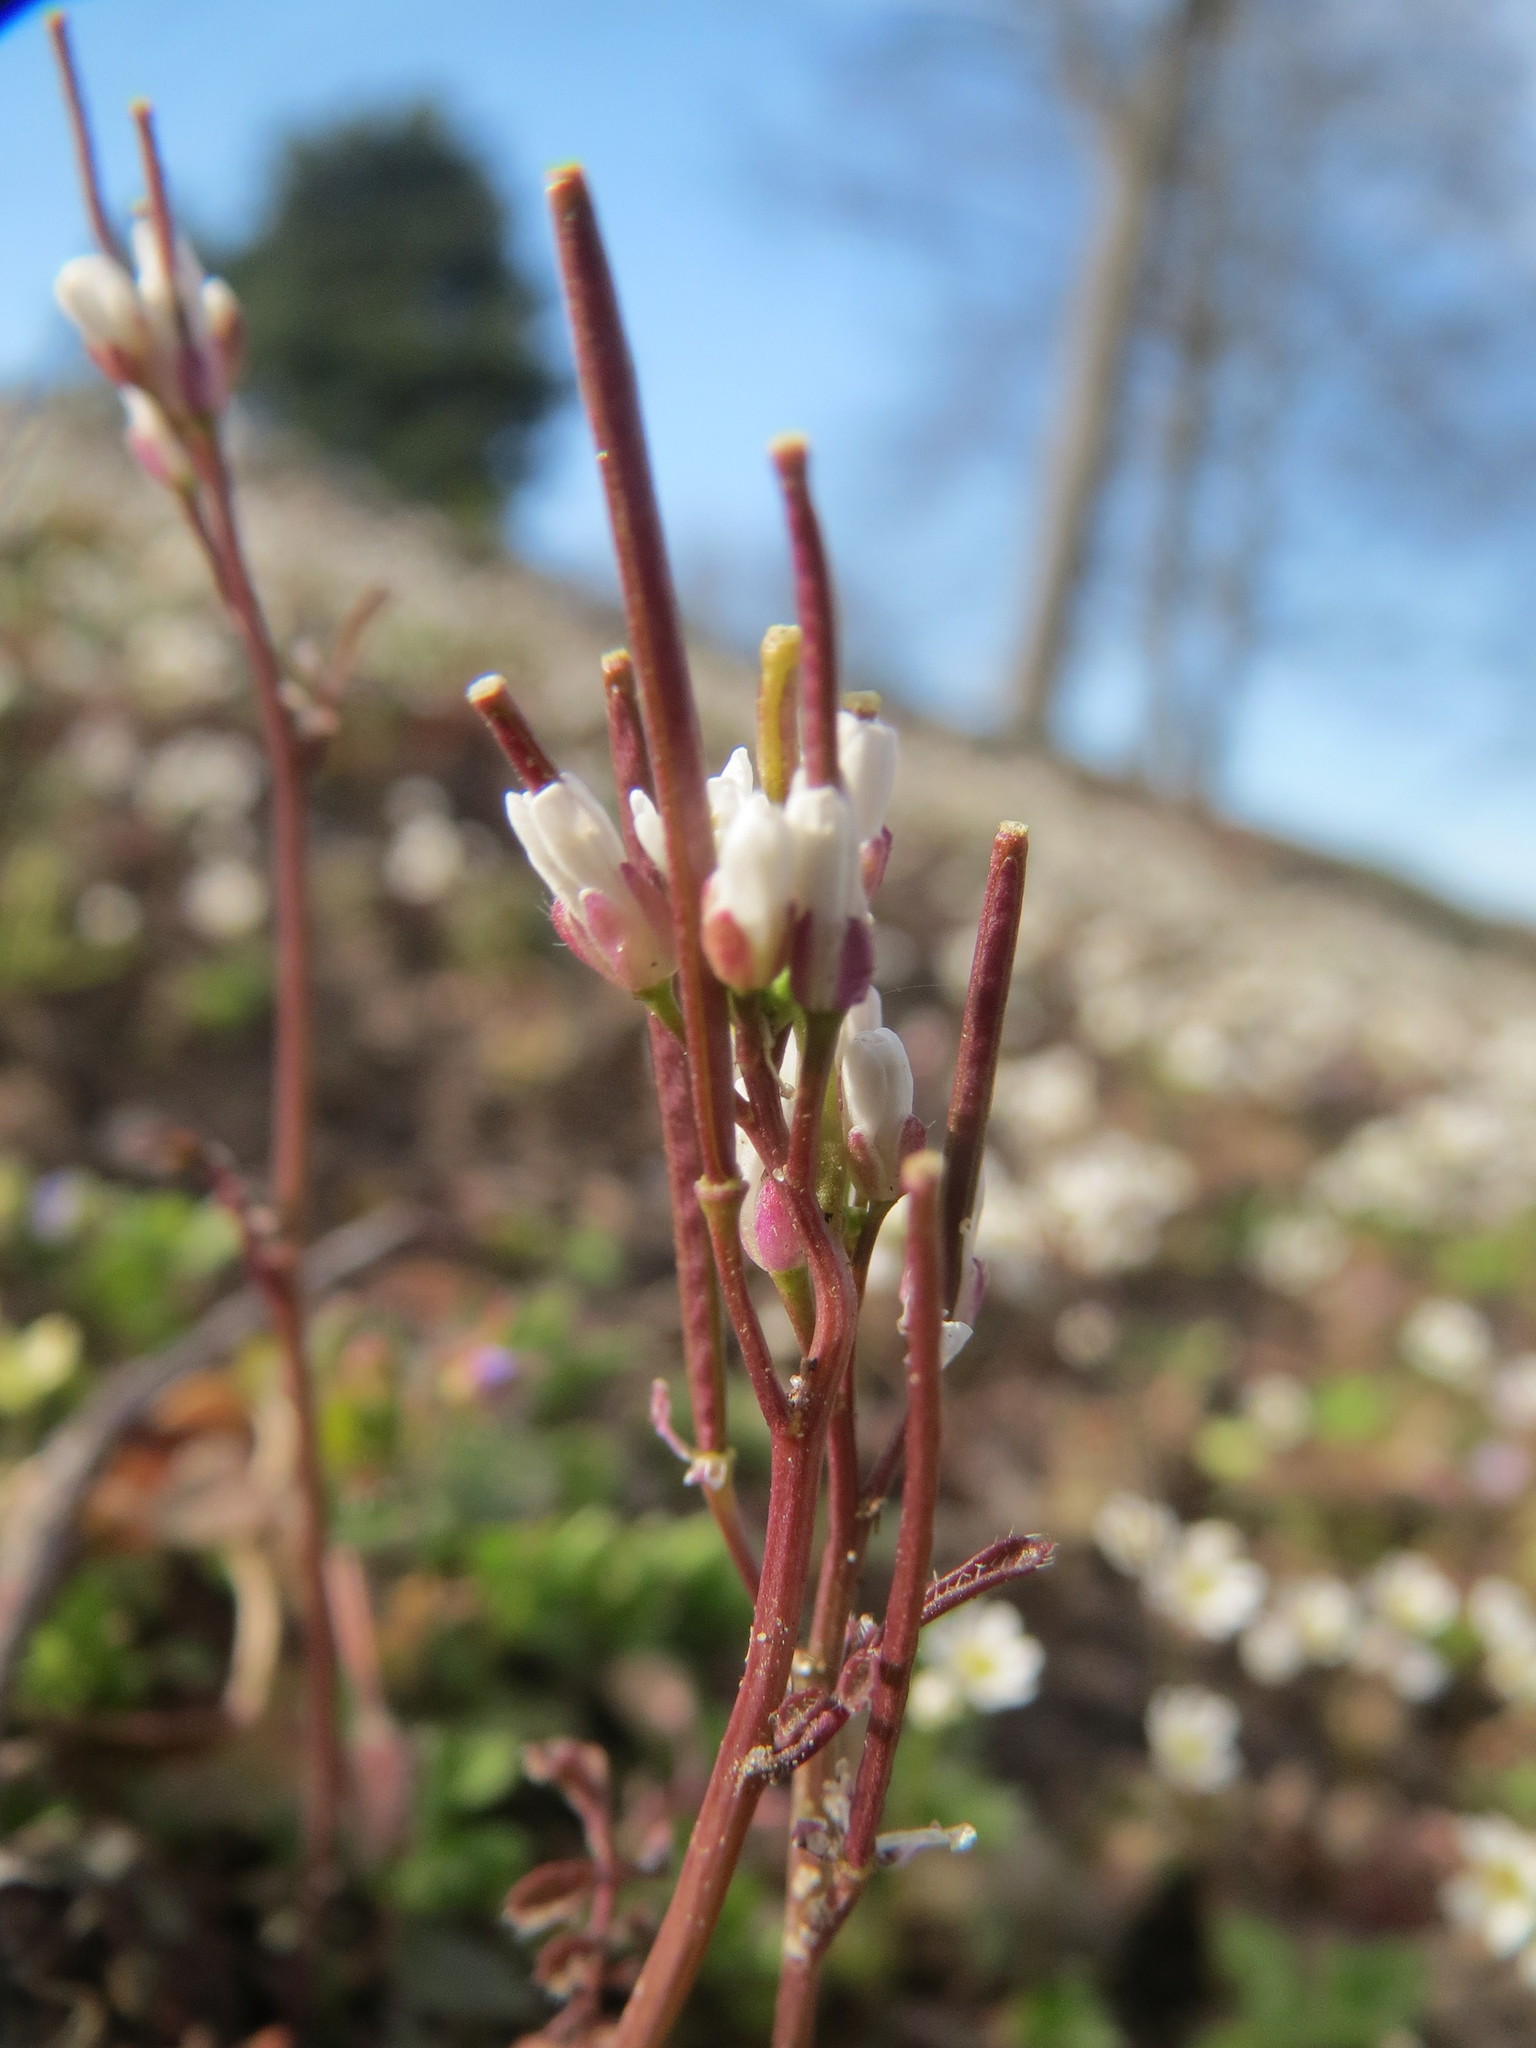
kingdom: Plantae
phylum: Tracheophyta
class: Magnoliopsida
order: Brassicales
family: Brassicaceae
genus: Cardamine
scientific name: Cardamine hirsuta
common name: Hairy bittercress
